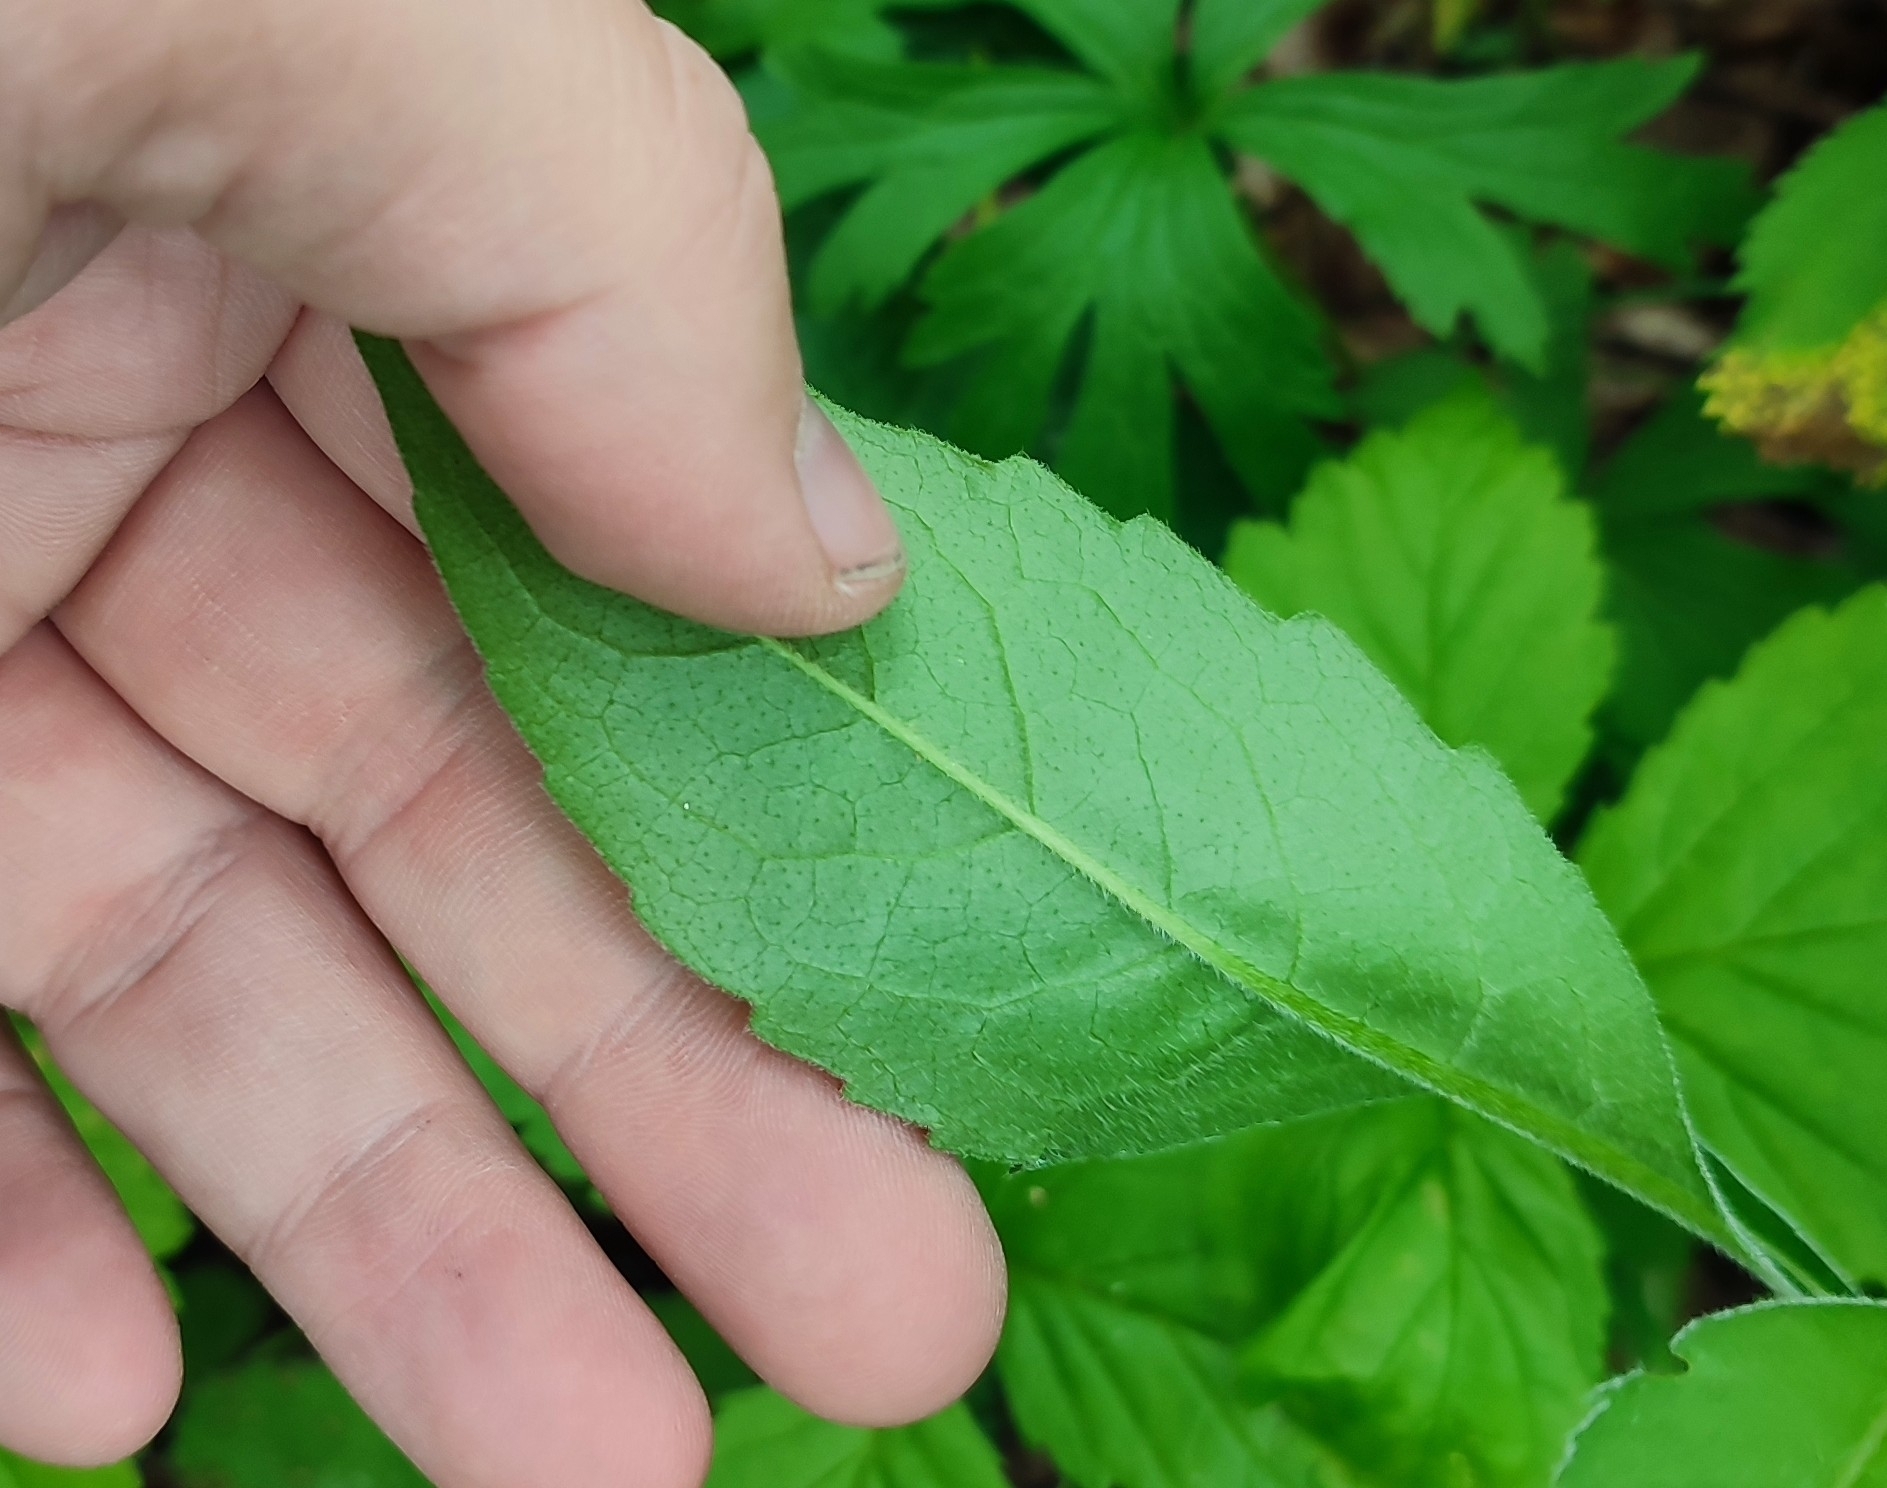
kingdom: Plantae
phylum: Tracheophyta
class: Magnoliopsida
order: Dipsacales
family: Caprifoliaceae
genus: Knautia
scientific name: Knautia arvensis
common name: Field scabiosa
